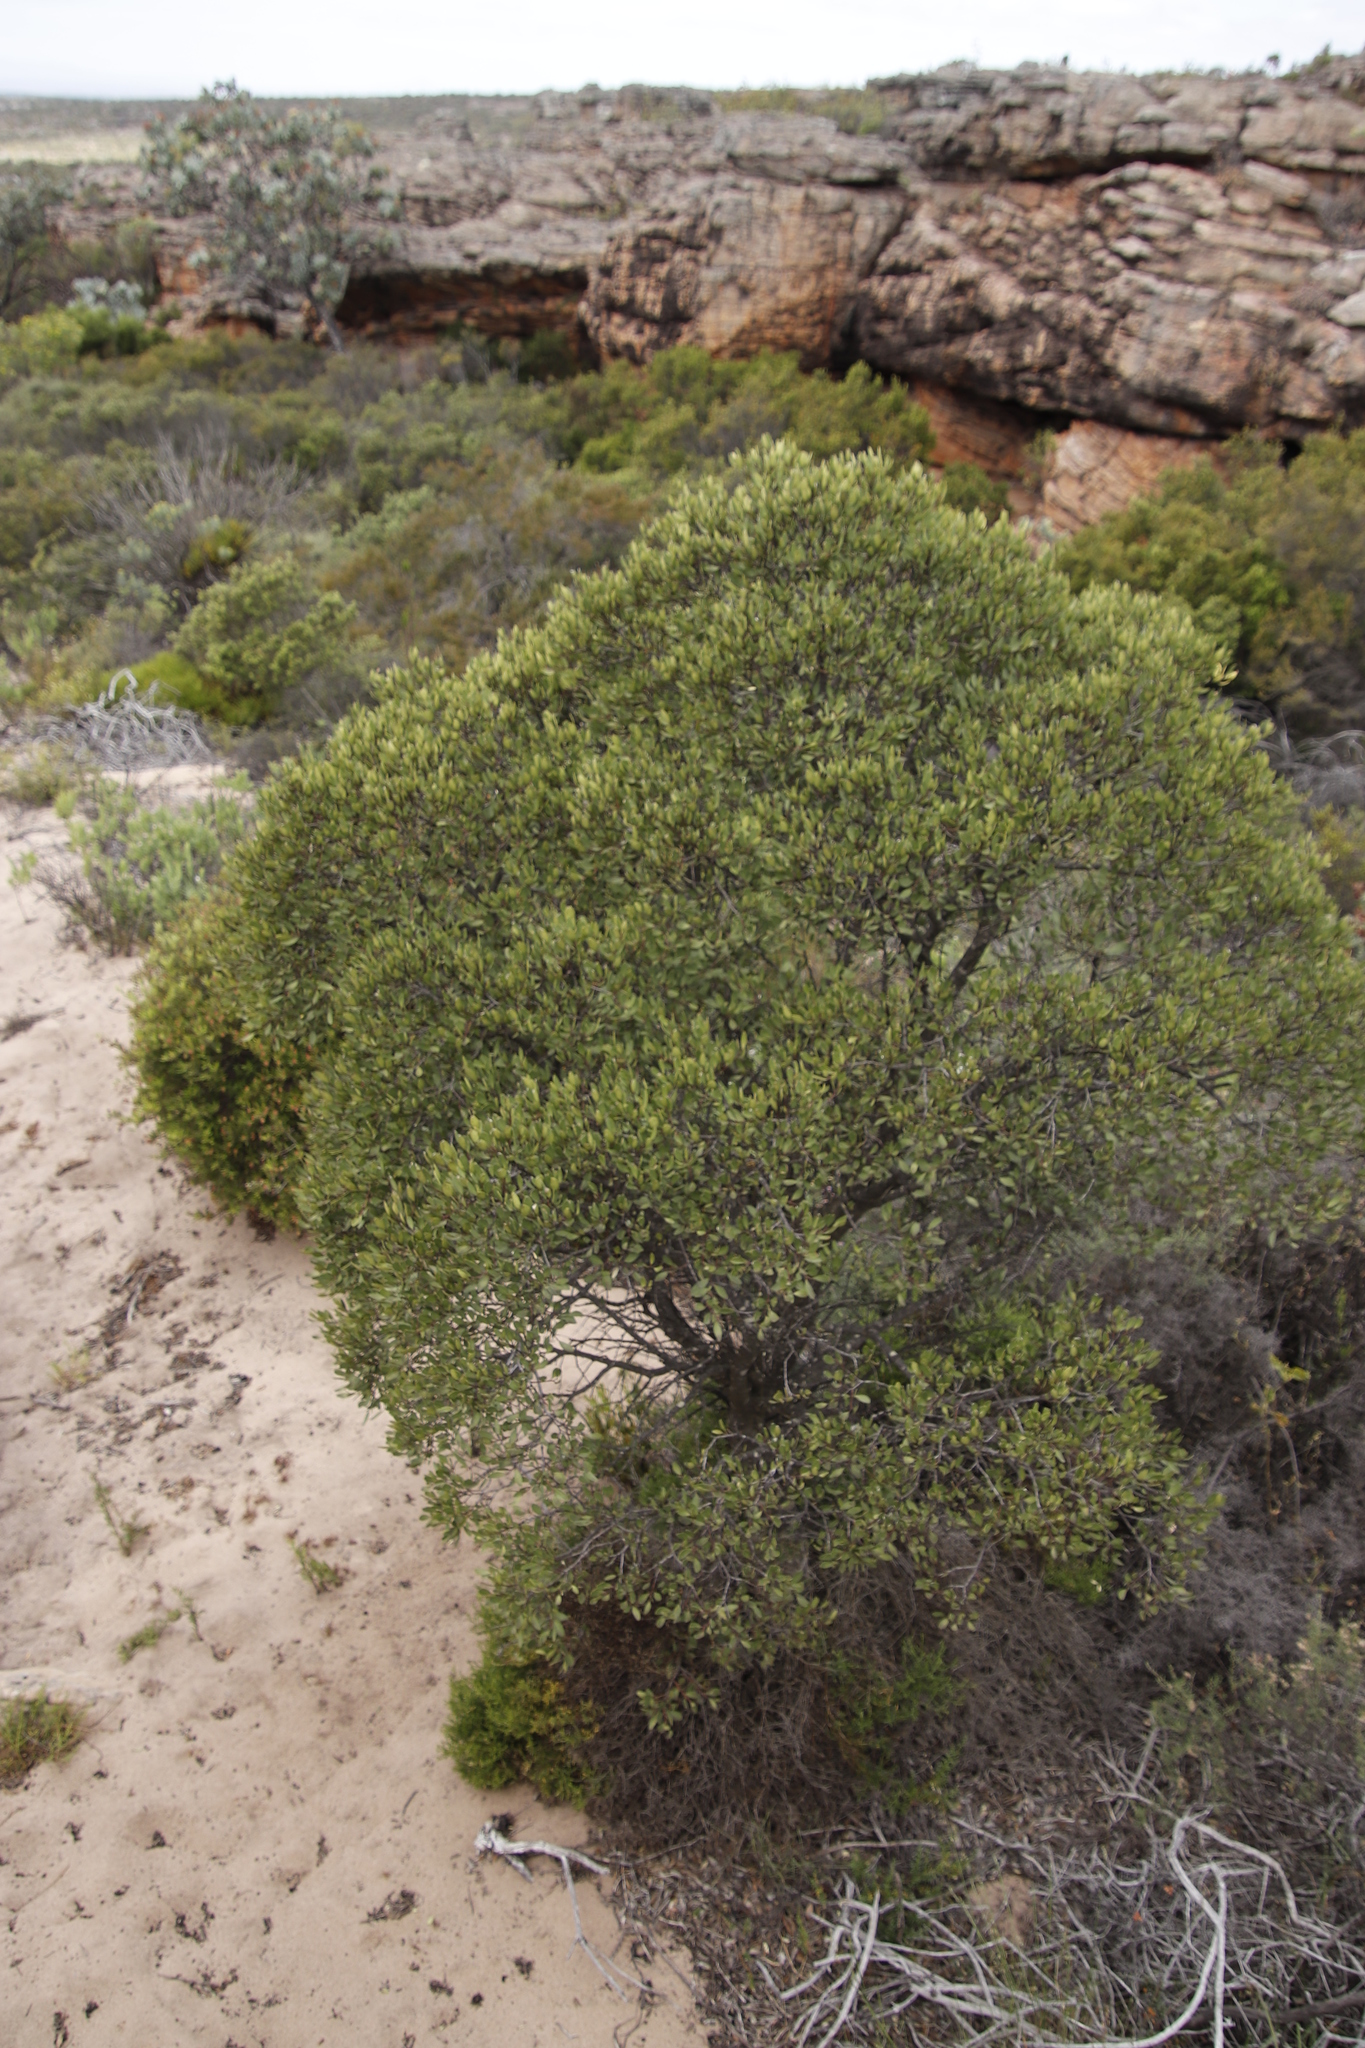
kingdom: Plantae
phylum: Tracheophyta
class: Magnoliopsida
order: Celastrales
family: Celastraceae
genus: Gymnosporia
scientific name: Gymnosporia laurina
